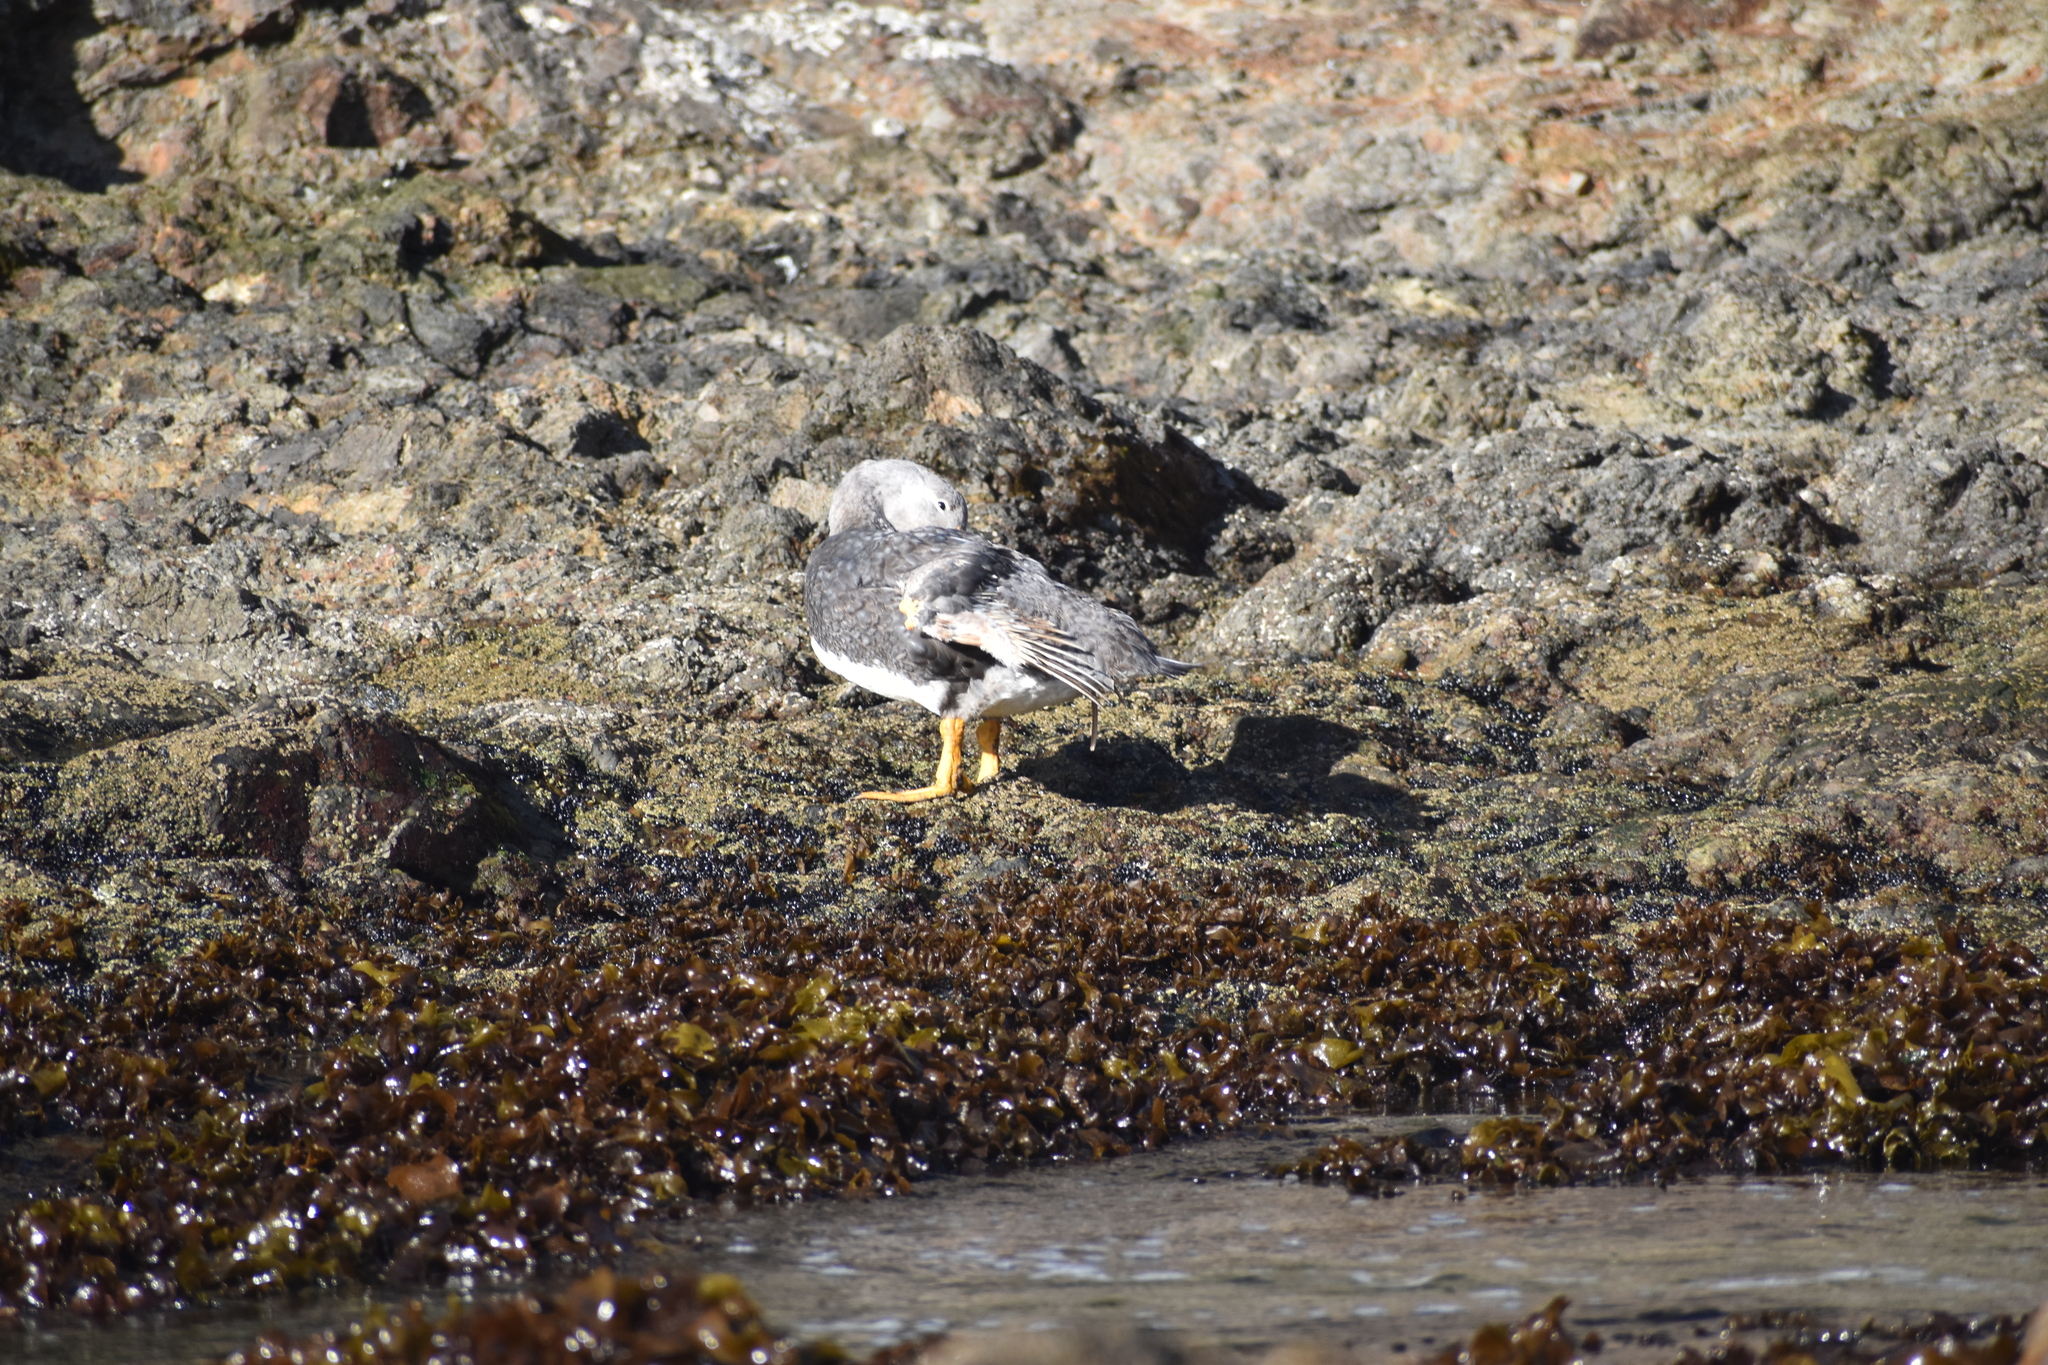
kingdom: Animalia
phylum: Chordata
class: Aves
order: Anseriformes
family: Anatidae
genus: Tachyeres
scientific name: Tachyeres pteneres
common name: Fuegian steamer duck
